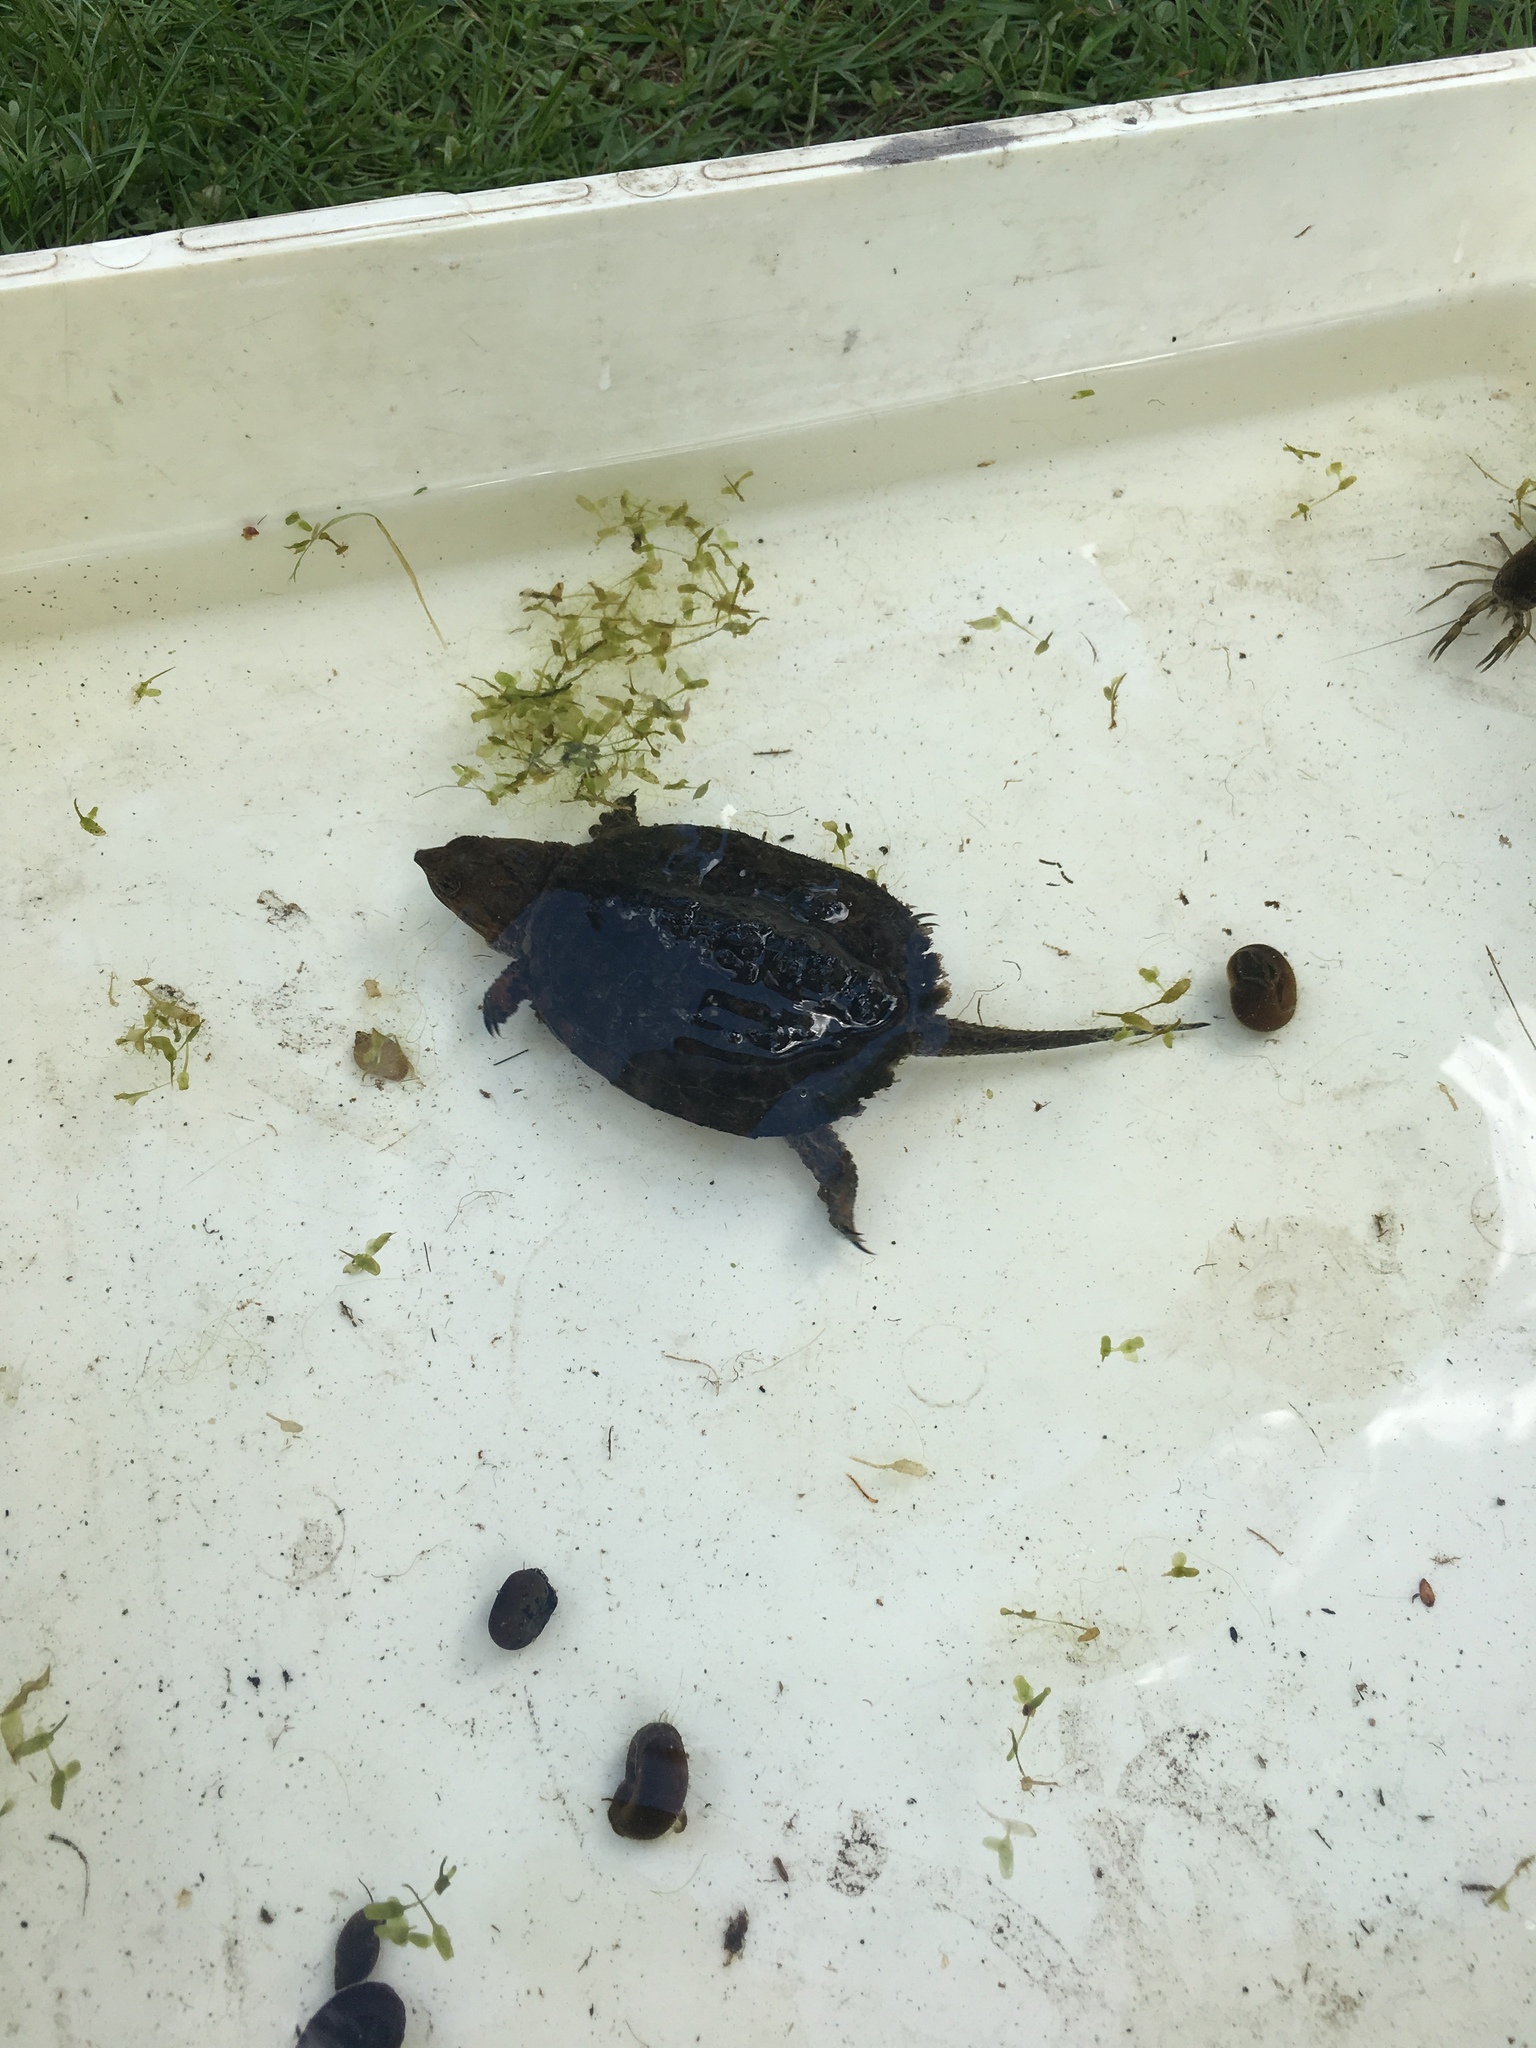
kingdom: Animalia
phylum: Chordata
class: Testudines
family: Chelydridae
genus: Chelydra
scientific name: Chelydra serpentina
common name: Common snapping turtle
